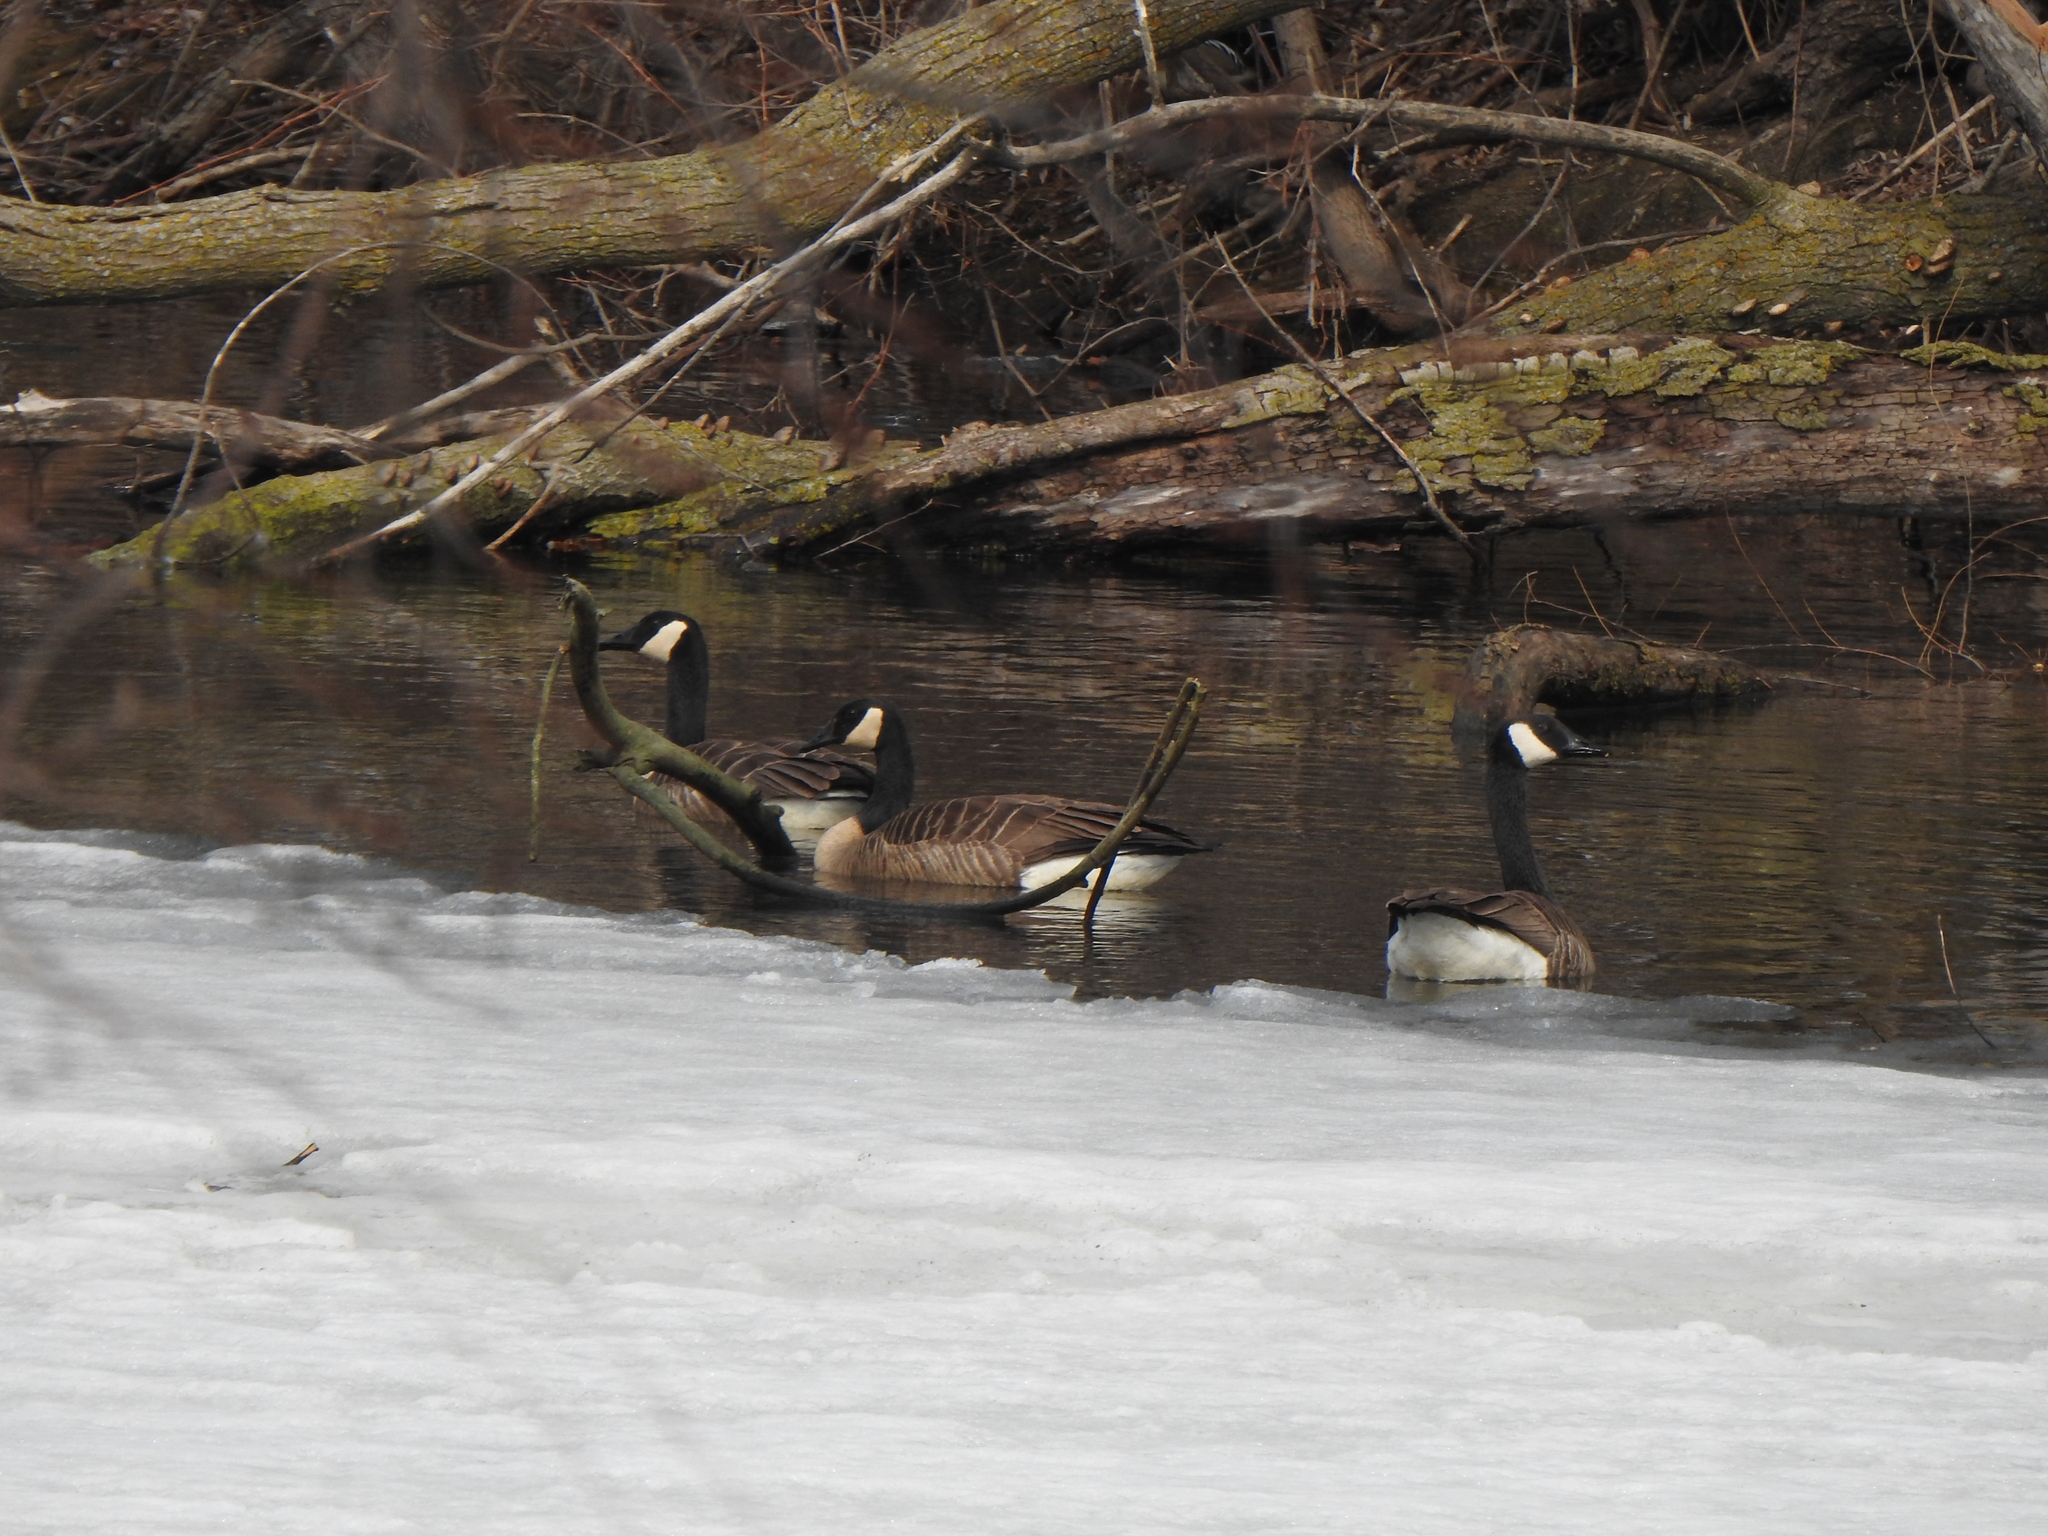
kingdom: Animalia
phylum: Chordata
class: Aves
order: Anseriformes
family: Anatidae
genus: Branta
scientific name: Branta canadensis
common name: Canada goose
